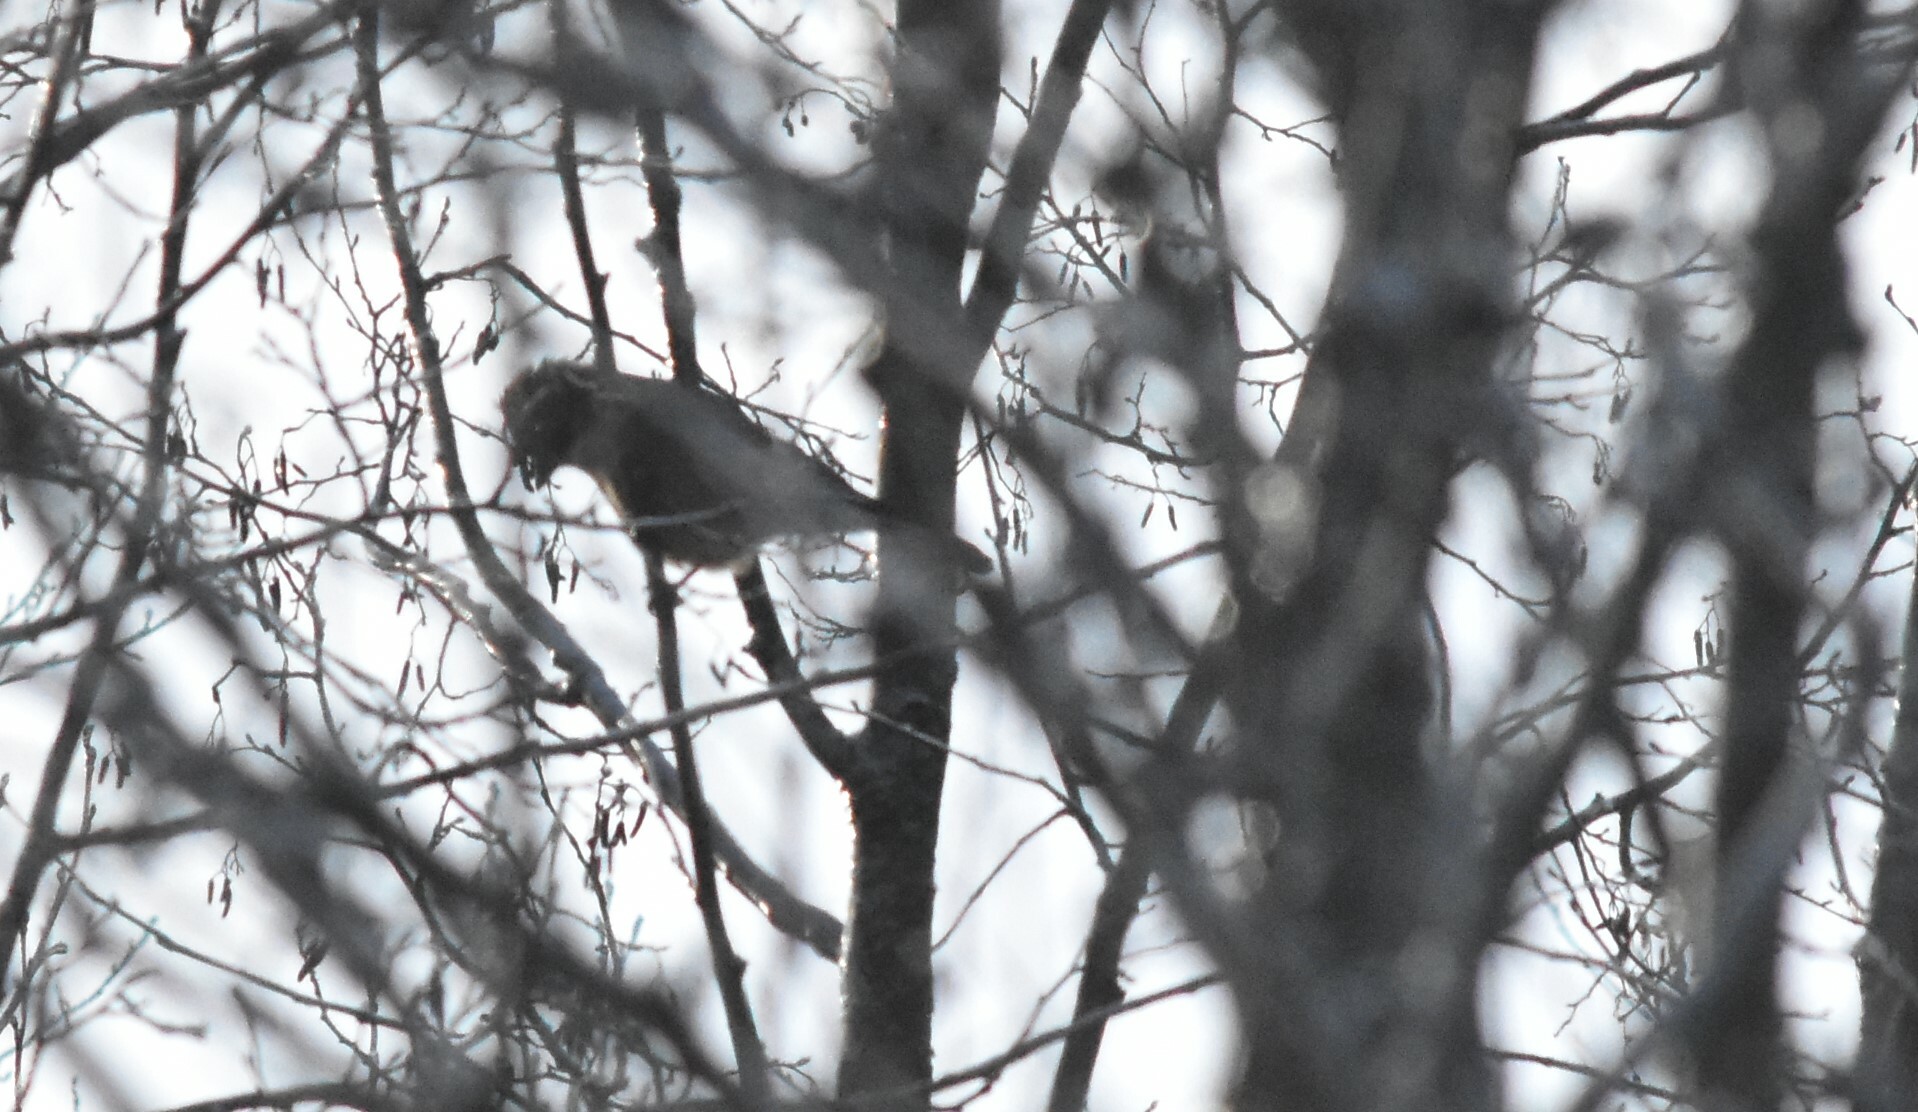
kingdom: Animalia
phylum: Chordata
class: Aves
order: Passeriformes
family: Corvidae
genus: Garrulus
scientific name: Garrulus glandarius
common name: Eurasian jay
